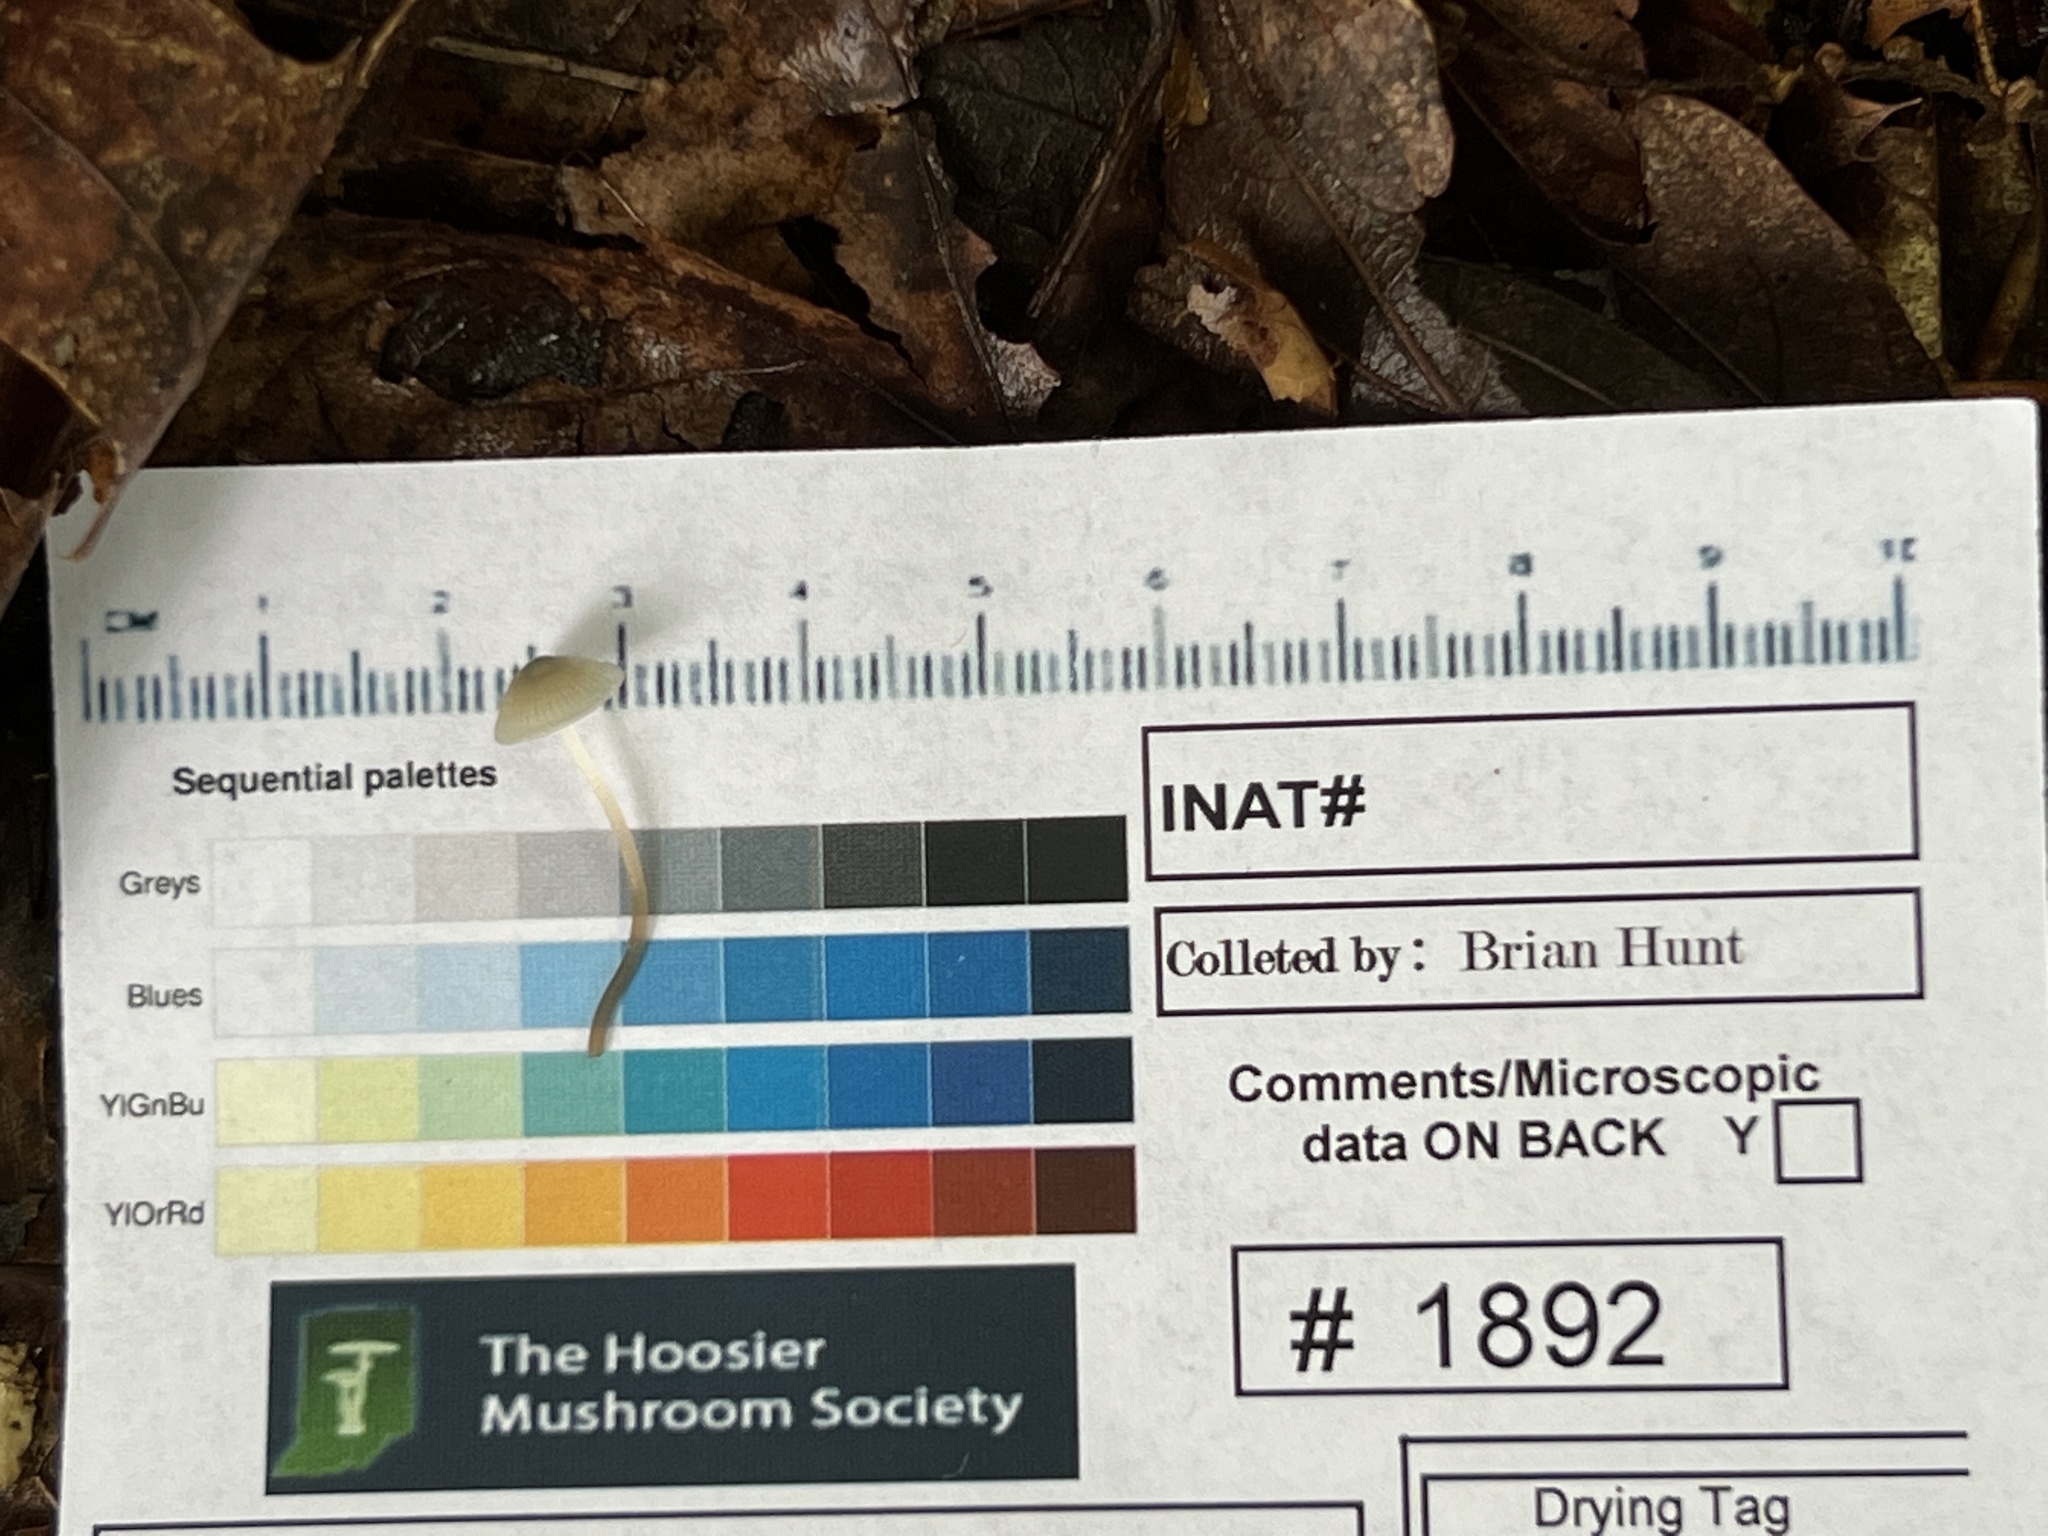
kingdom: Fungi
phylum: Basidiomycota
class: Agaricomycetes
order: Agaricales
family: Mycenaceae
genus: Mycena
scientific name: Mycena subcaerulea
